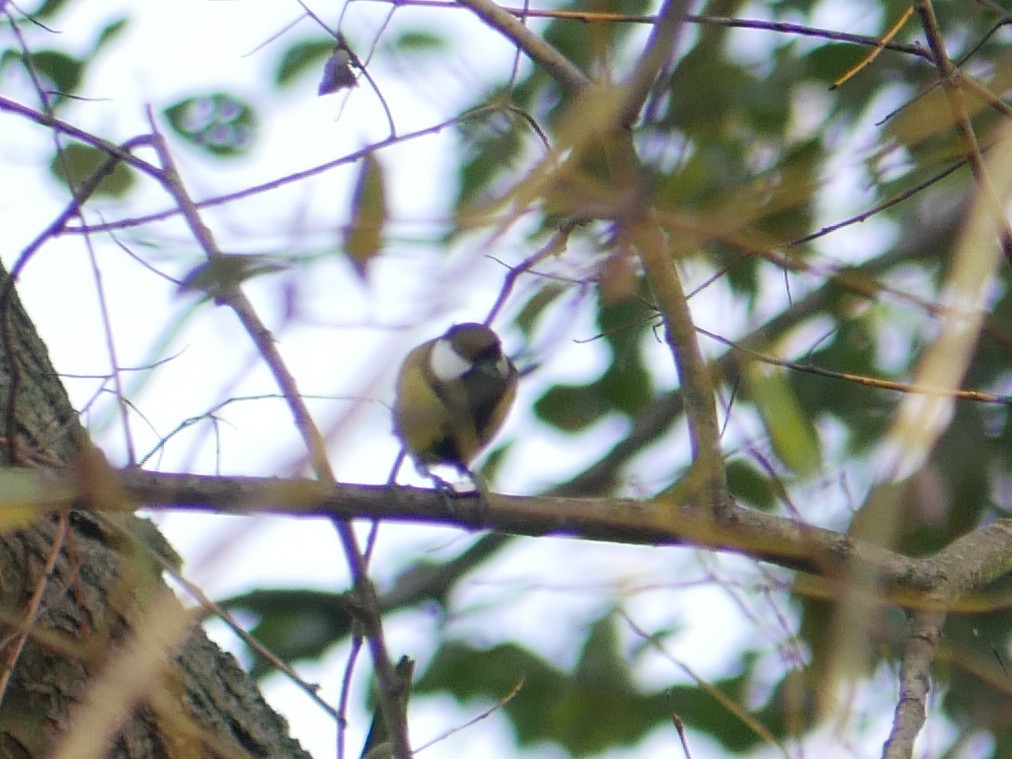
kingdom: Animalia
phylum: Chordata
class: Aves
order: Passeriformes
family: Paridae
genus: Parus
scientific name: Parus major
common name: Great tit
